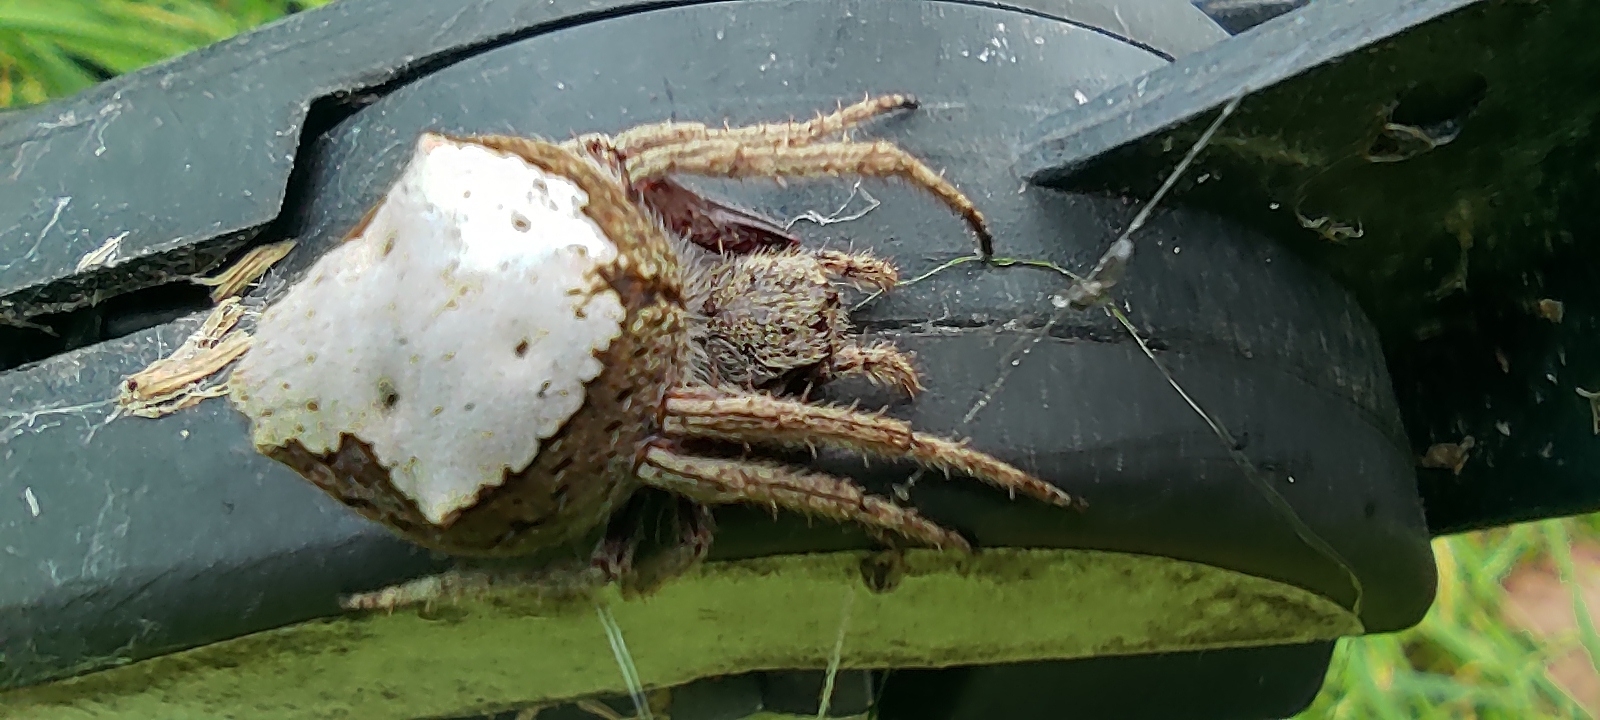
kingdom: Animalia
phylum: Arthropoda
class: Arachnida
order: Araneae
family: Araneidae
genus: Eriophora
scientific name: Eriophora pustulosa
